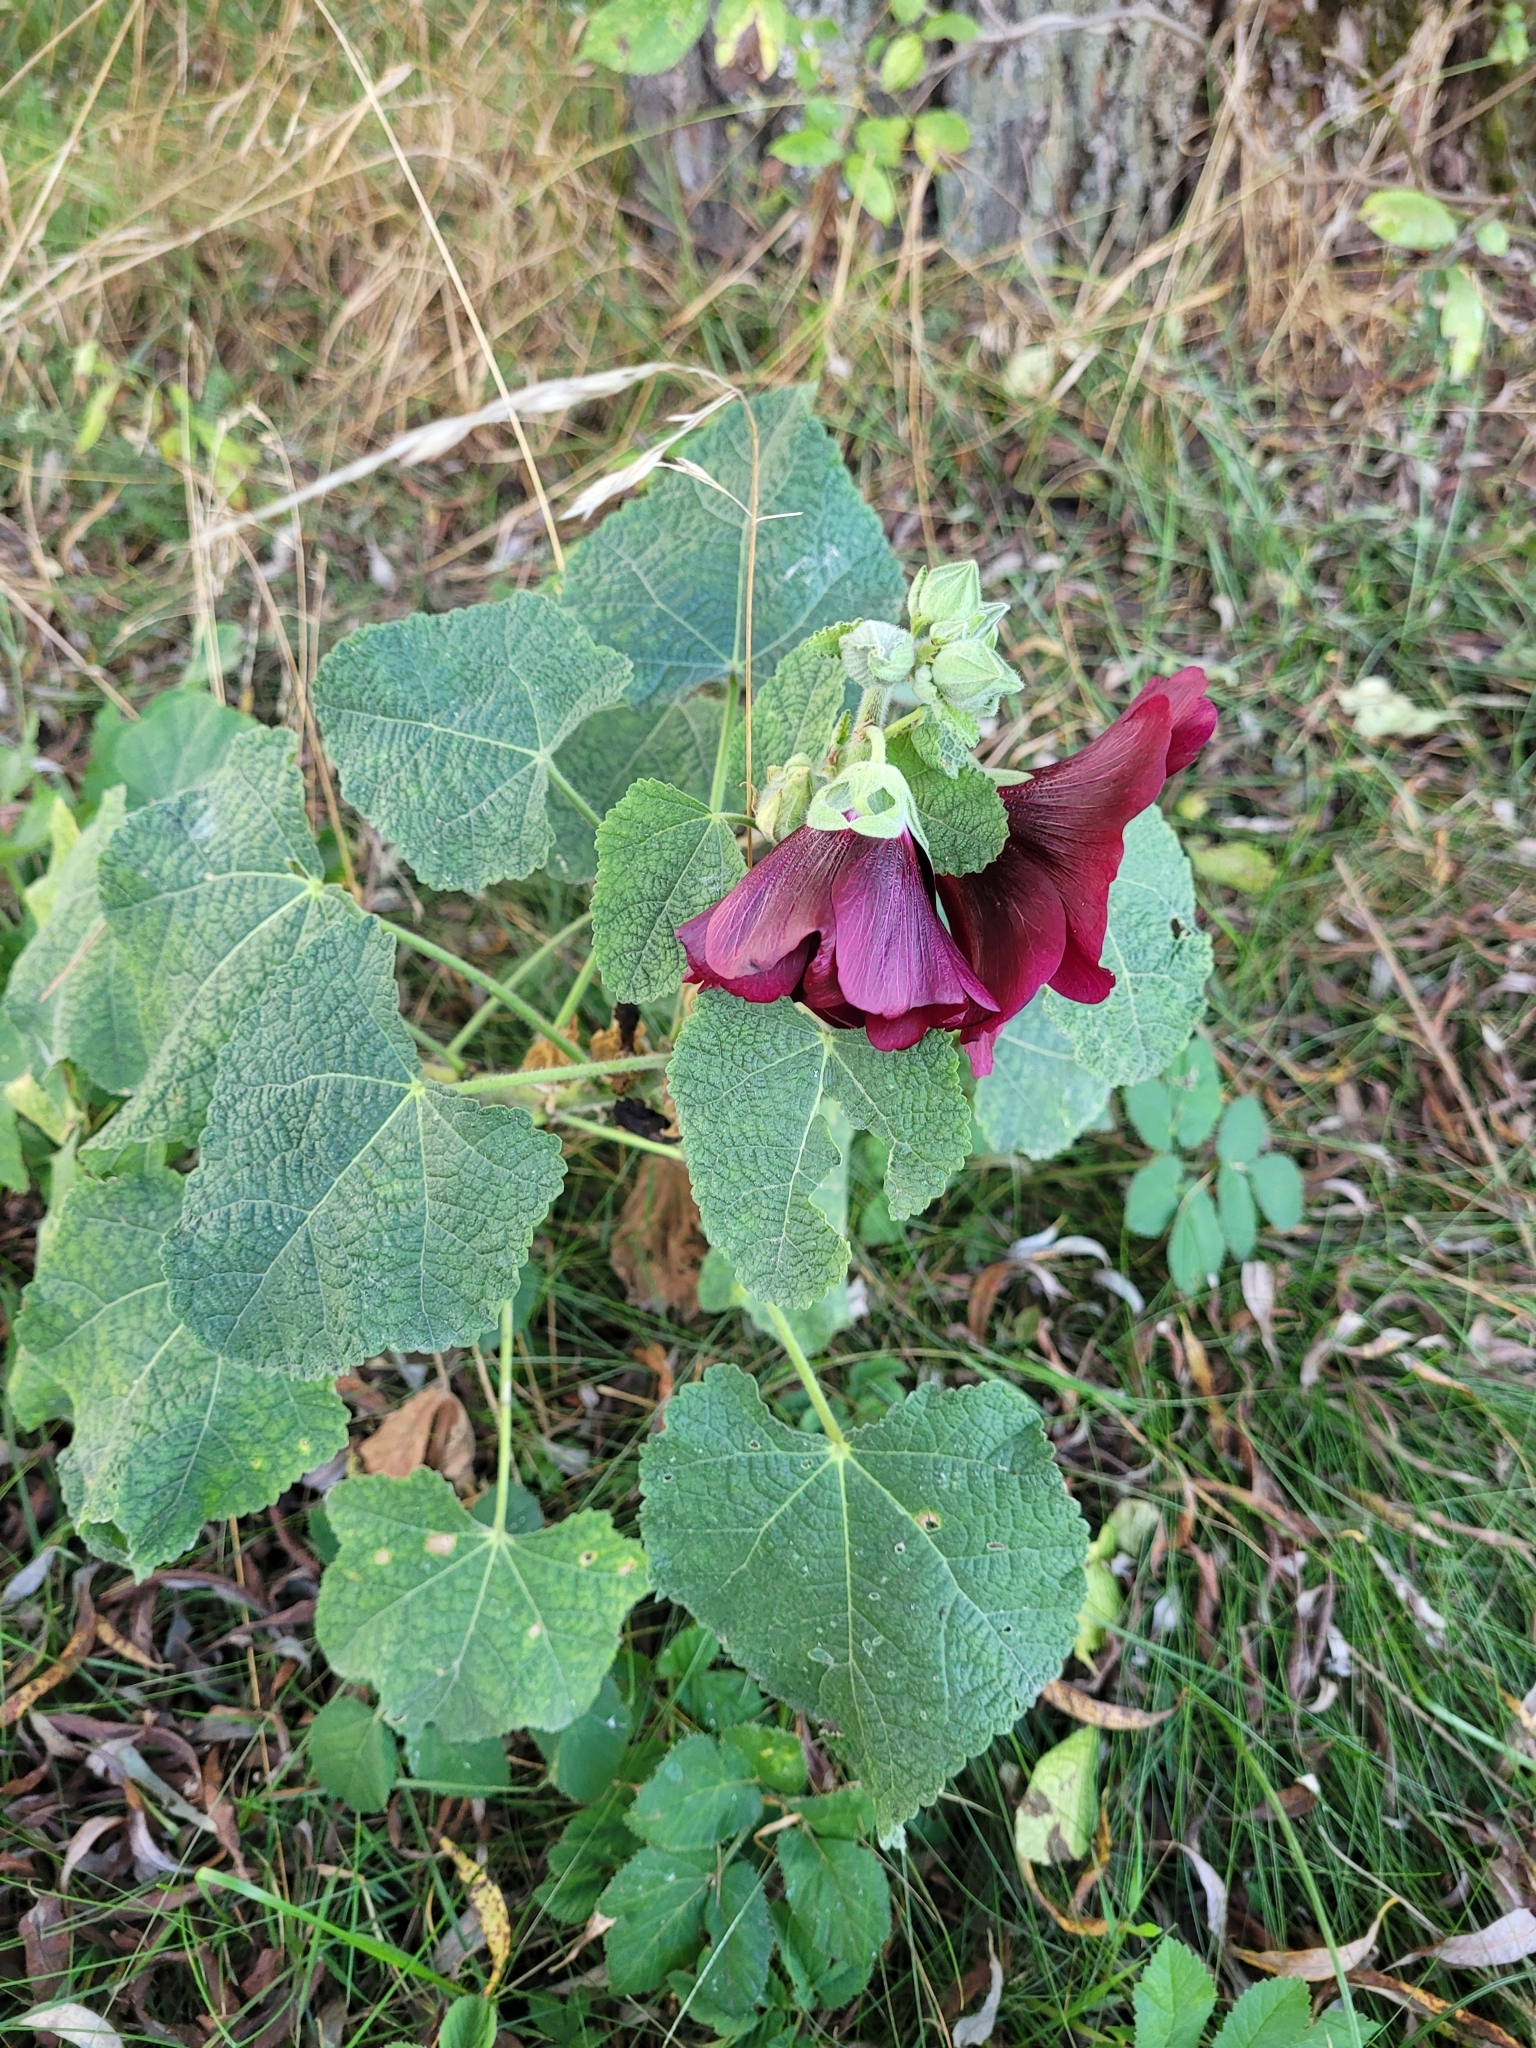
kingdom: Plantae
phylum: Tracheophyta
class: Magnoliopsida
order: Malvales
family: Malvaceae
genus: Alcea
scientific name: Alcea rosea
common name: Hollyhock
